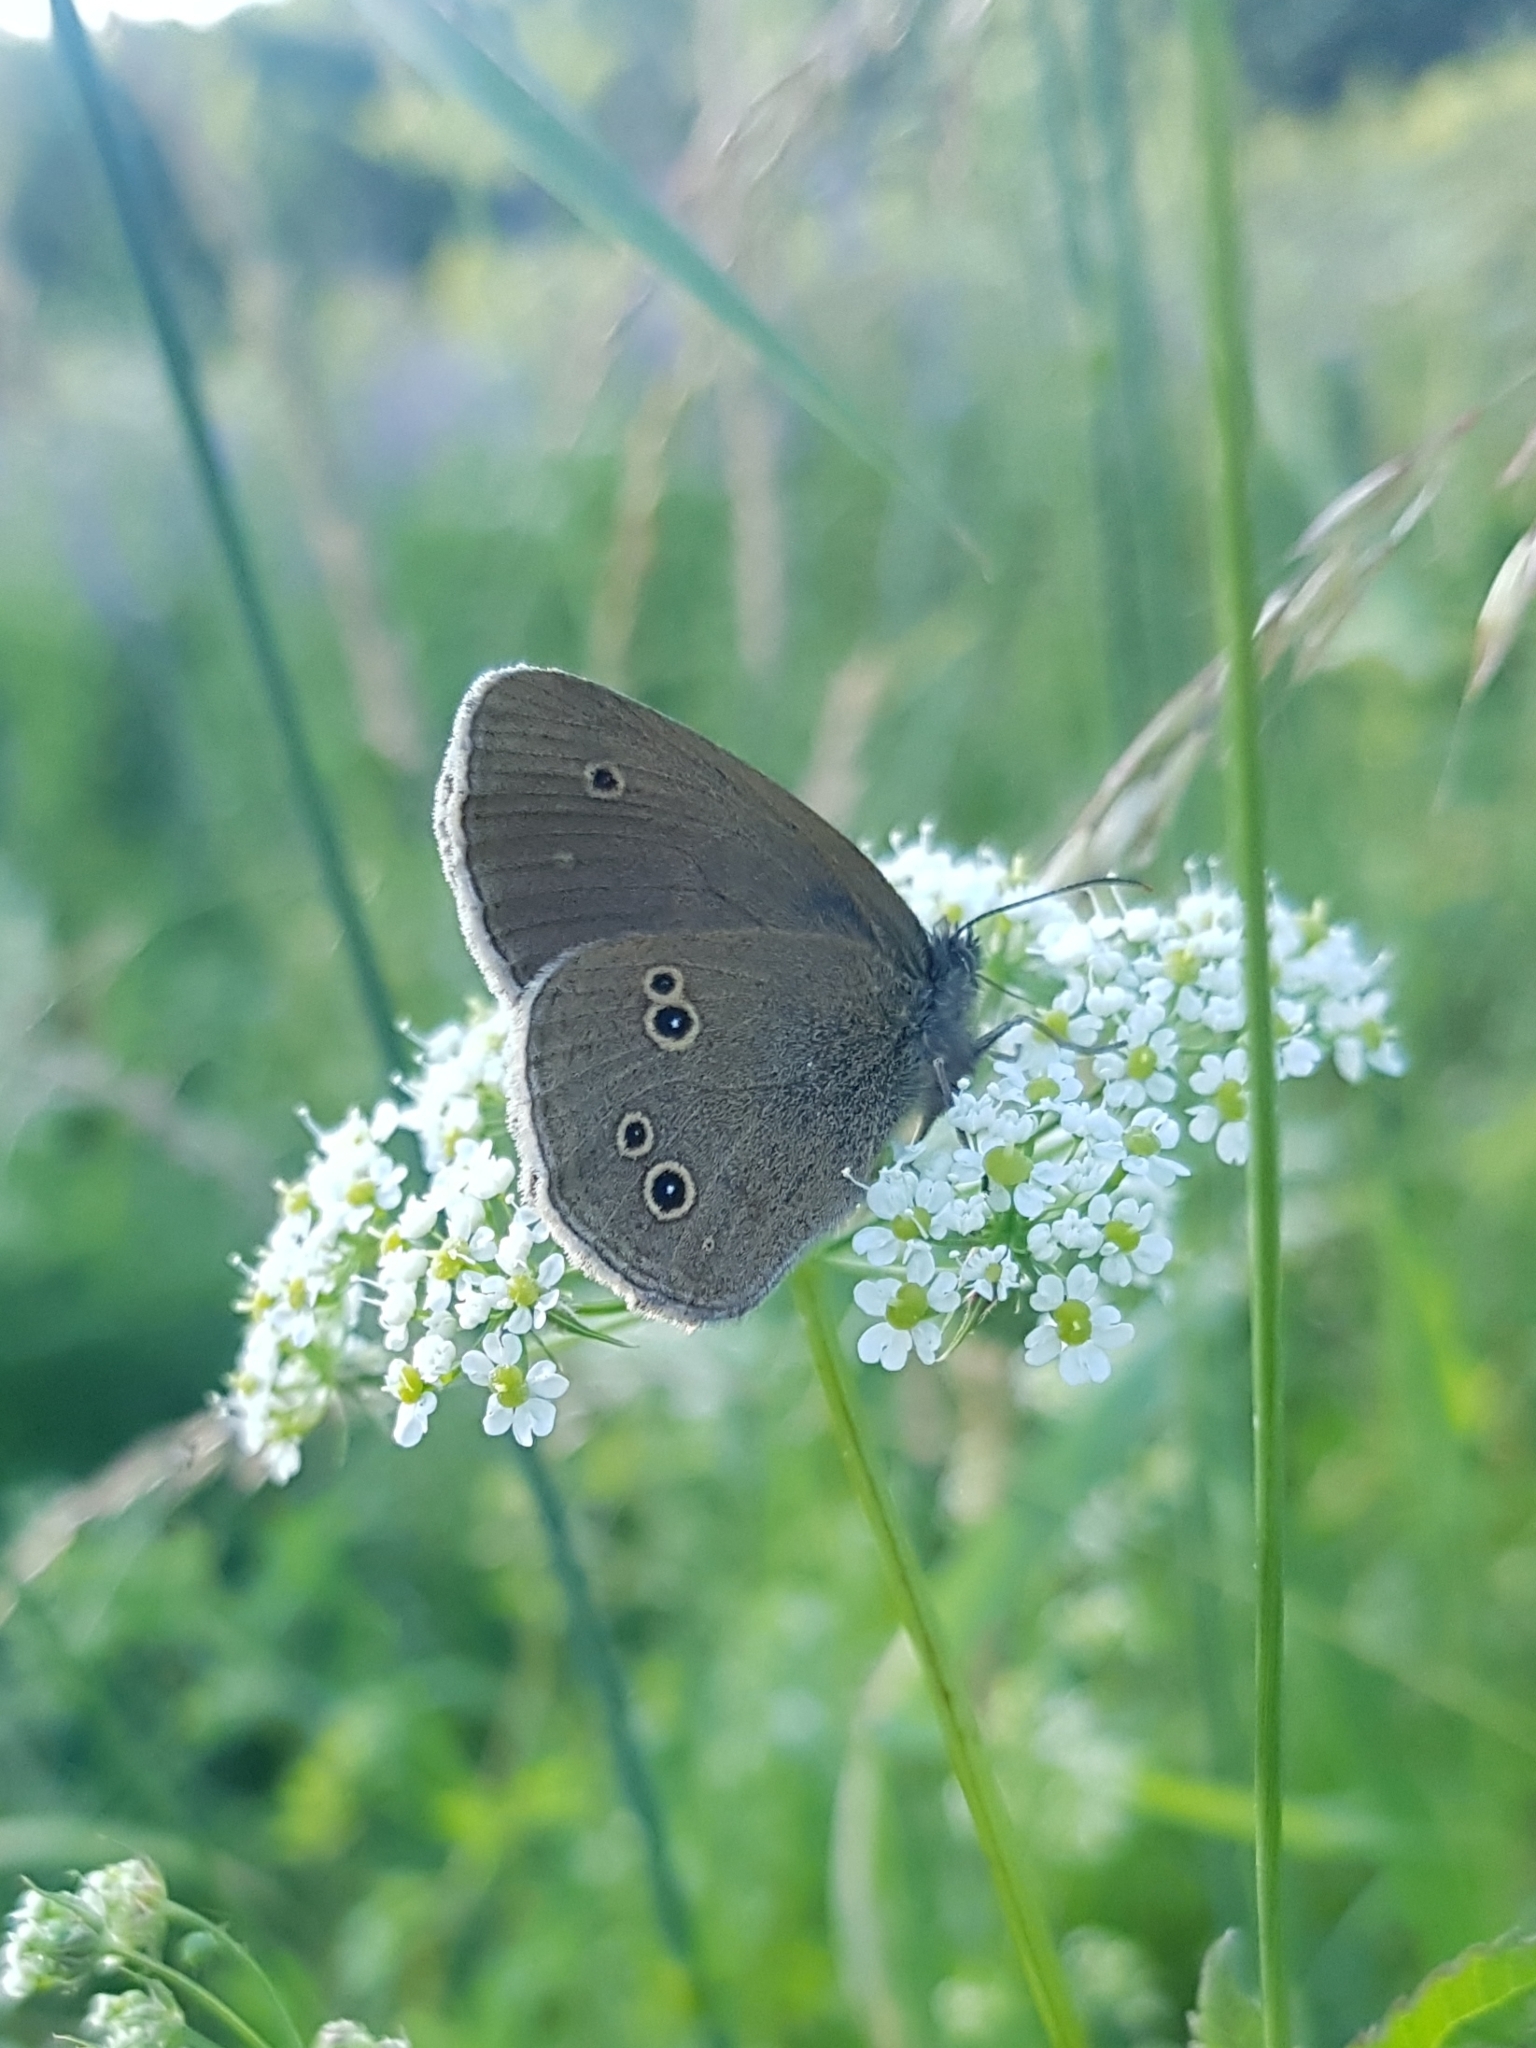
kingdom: Animalia
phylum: Arthropoda
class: Insecta
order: Lepidoptera
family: Nymphalidae
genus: Aphantopus
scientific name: Aphantopus hyperantus
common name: Ringlet
